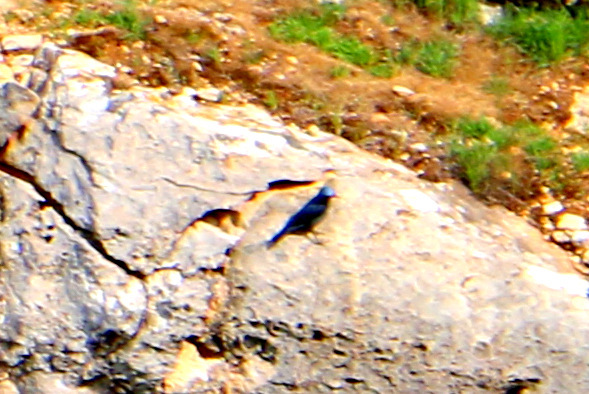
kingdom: Animalia
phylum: Chordata
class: Aves
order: Passeriformes
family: Muscicapidae
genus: Monticola
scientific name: Monticola solitarius
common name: Blue rock thrush
